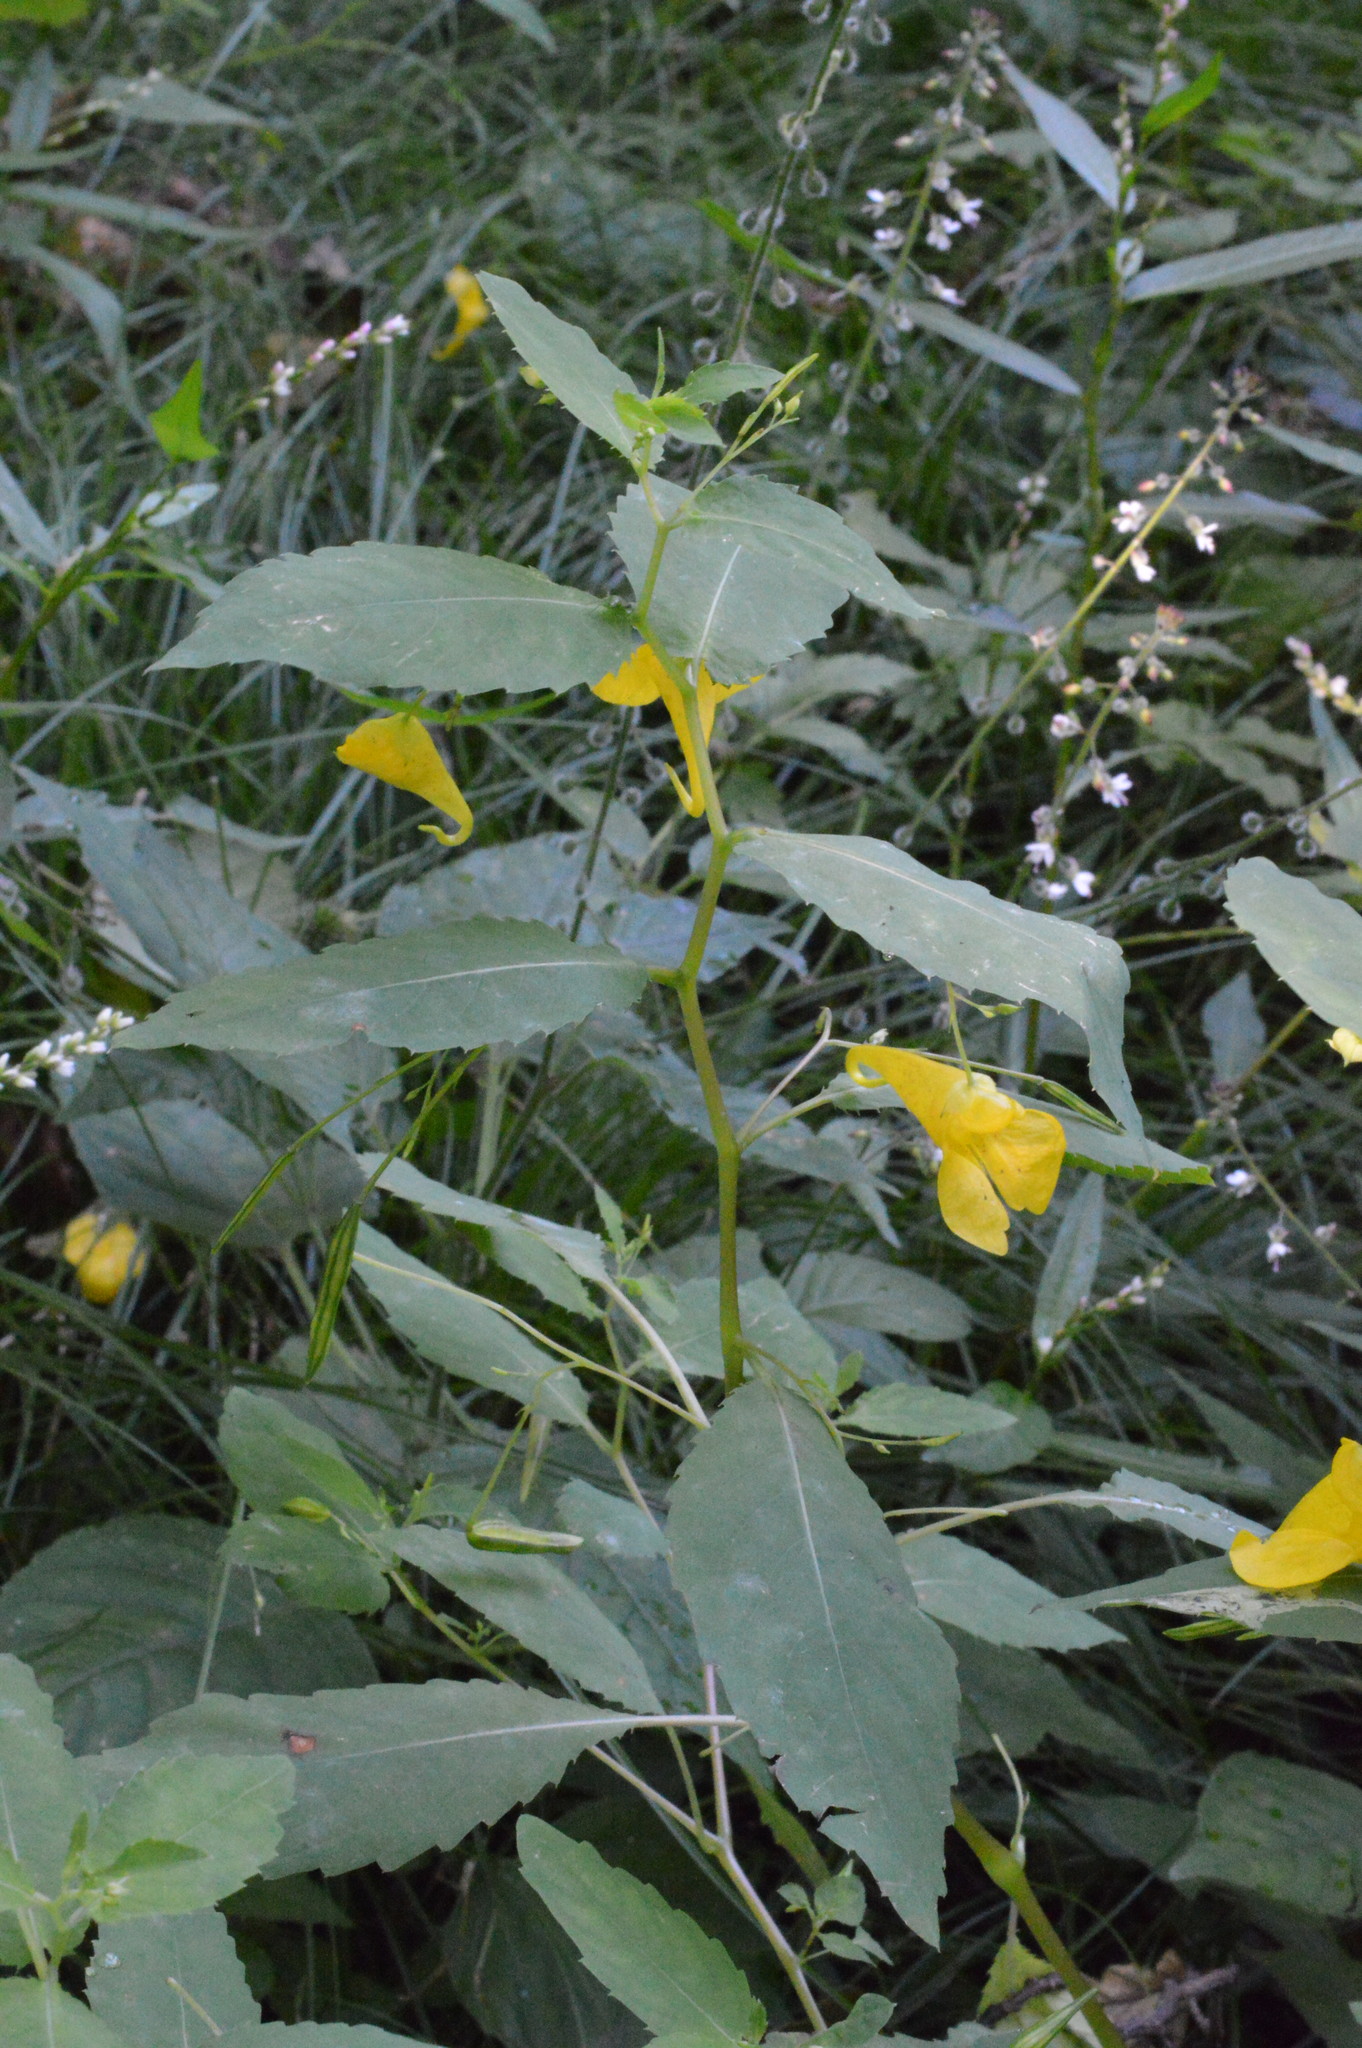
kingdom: Plantae
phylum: Tracheophyta
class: Magnoliopsida
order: Ericales
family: Balsaminaceae
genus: Impatiens
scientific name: Impatiens noli-tangere
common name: Touch-me-not balsam
